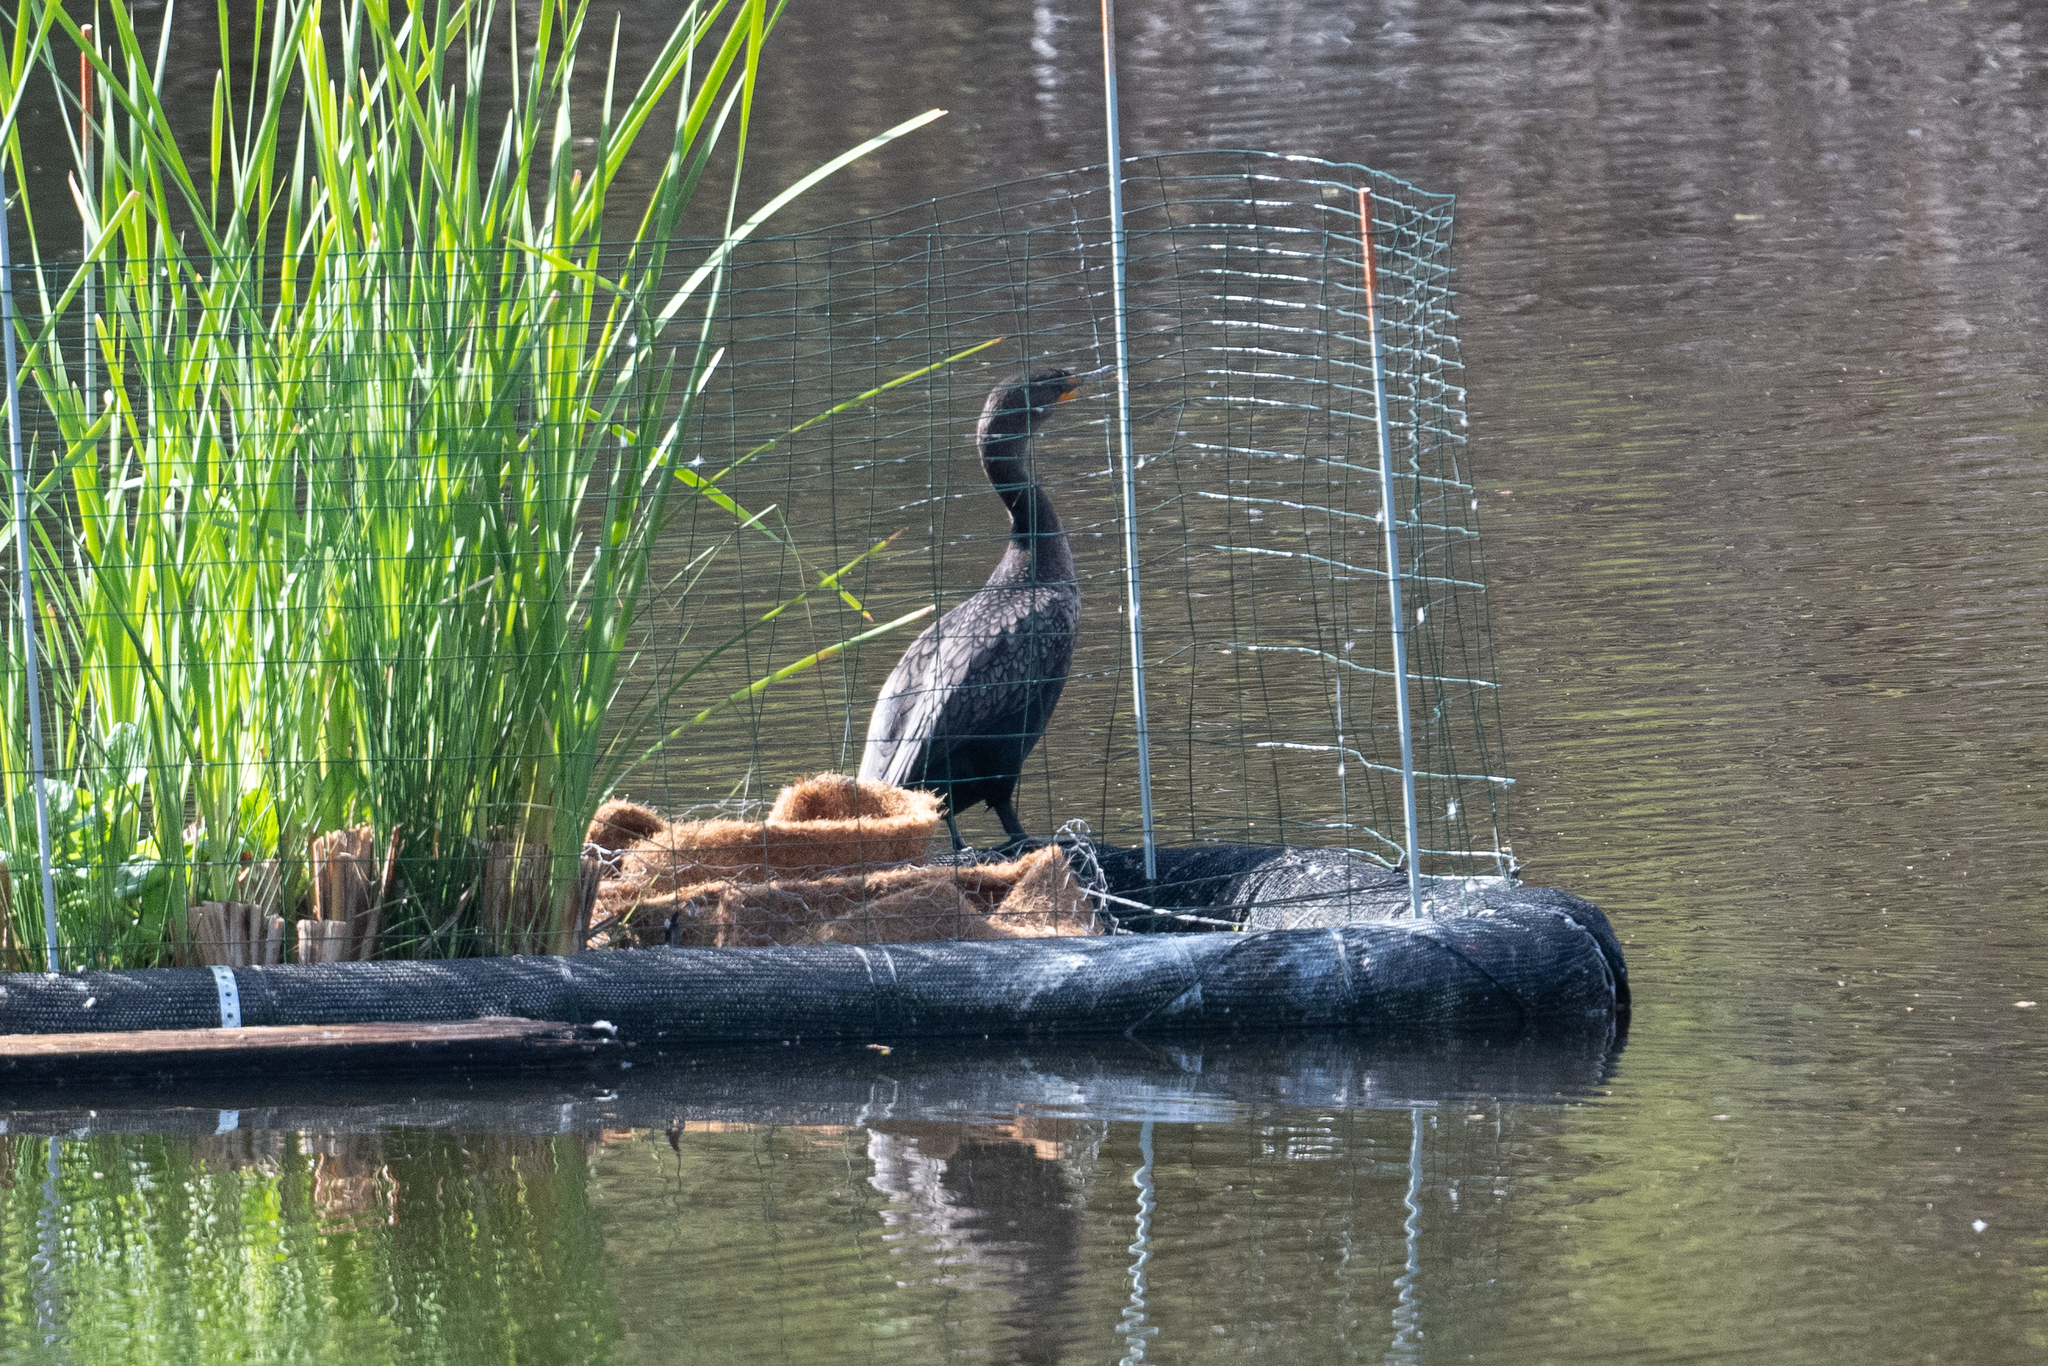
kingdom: Animalia
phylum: Chordata
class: Aves
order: Suliformes
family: Phalacrocoracidae
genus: Phalacrocorax
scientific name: Phalacrocorax auritus
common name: Double-crested cormorant
